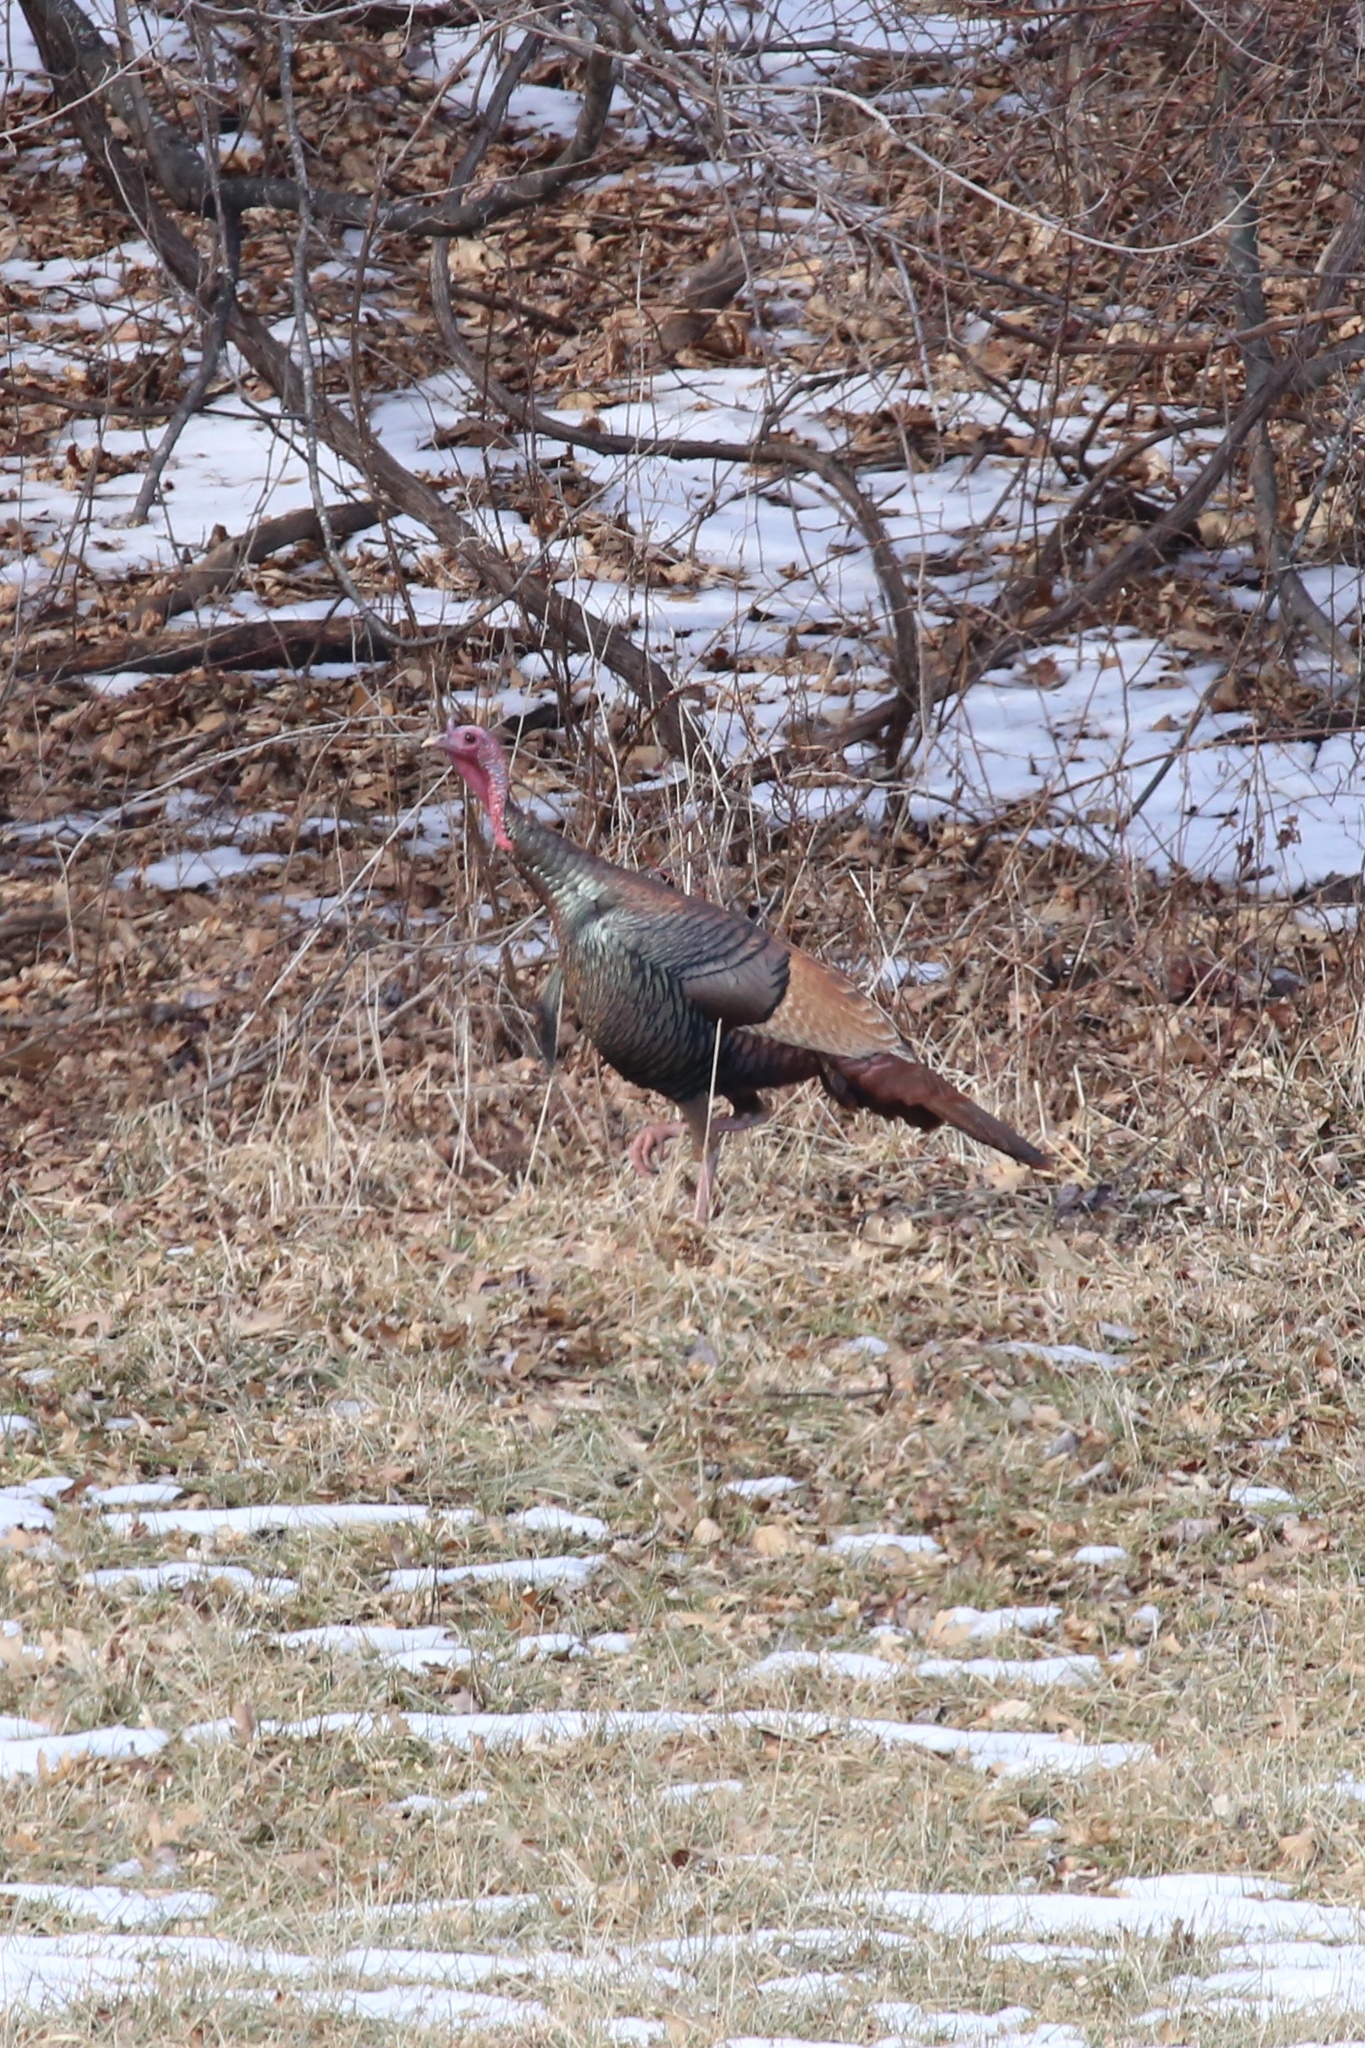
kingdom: Animalia
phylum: Chordata
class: Aves
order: Galliformes
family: Phasianidae
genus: Meleagris
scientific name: Meleagris gallopavo
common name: Wild turkey
